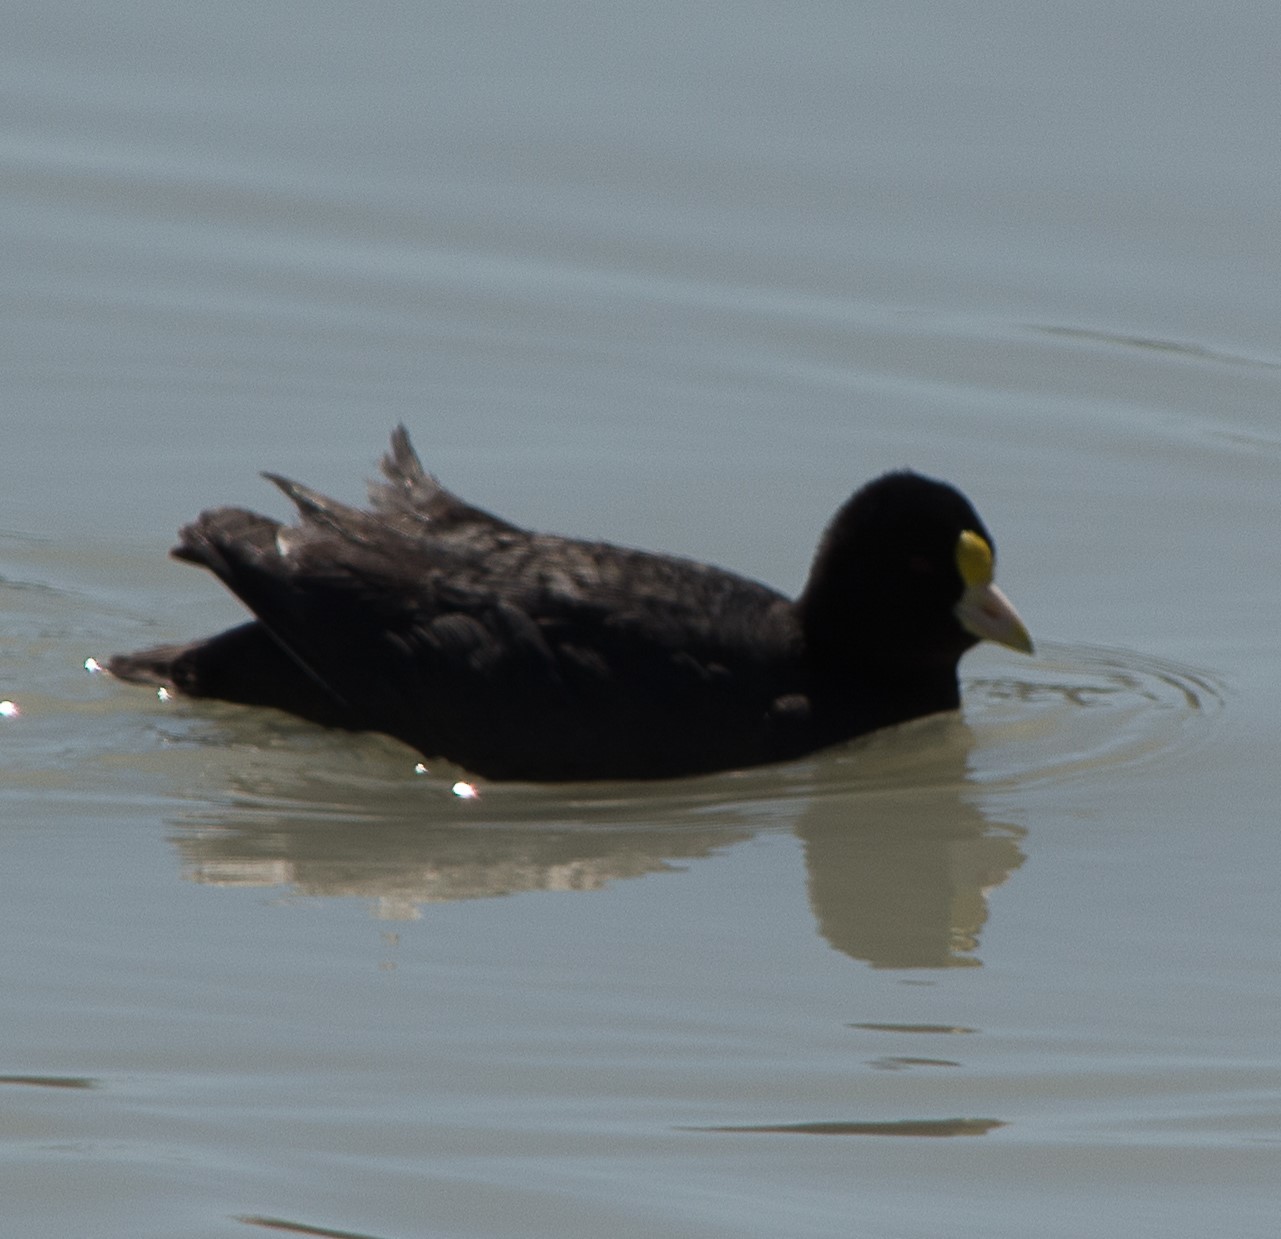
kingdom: Animalia
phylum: Chordata
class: Aves
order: Gruiformes
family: Rallidae
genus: Fulica
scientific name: Fulica leucoptera
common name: White-winged coot
